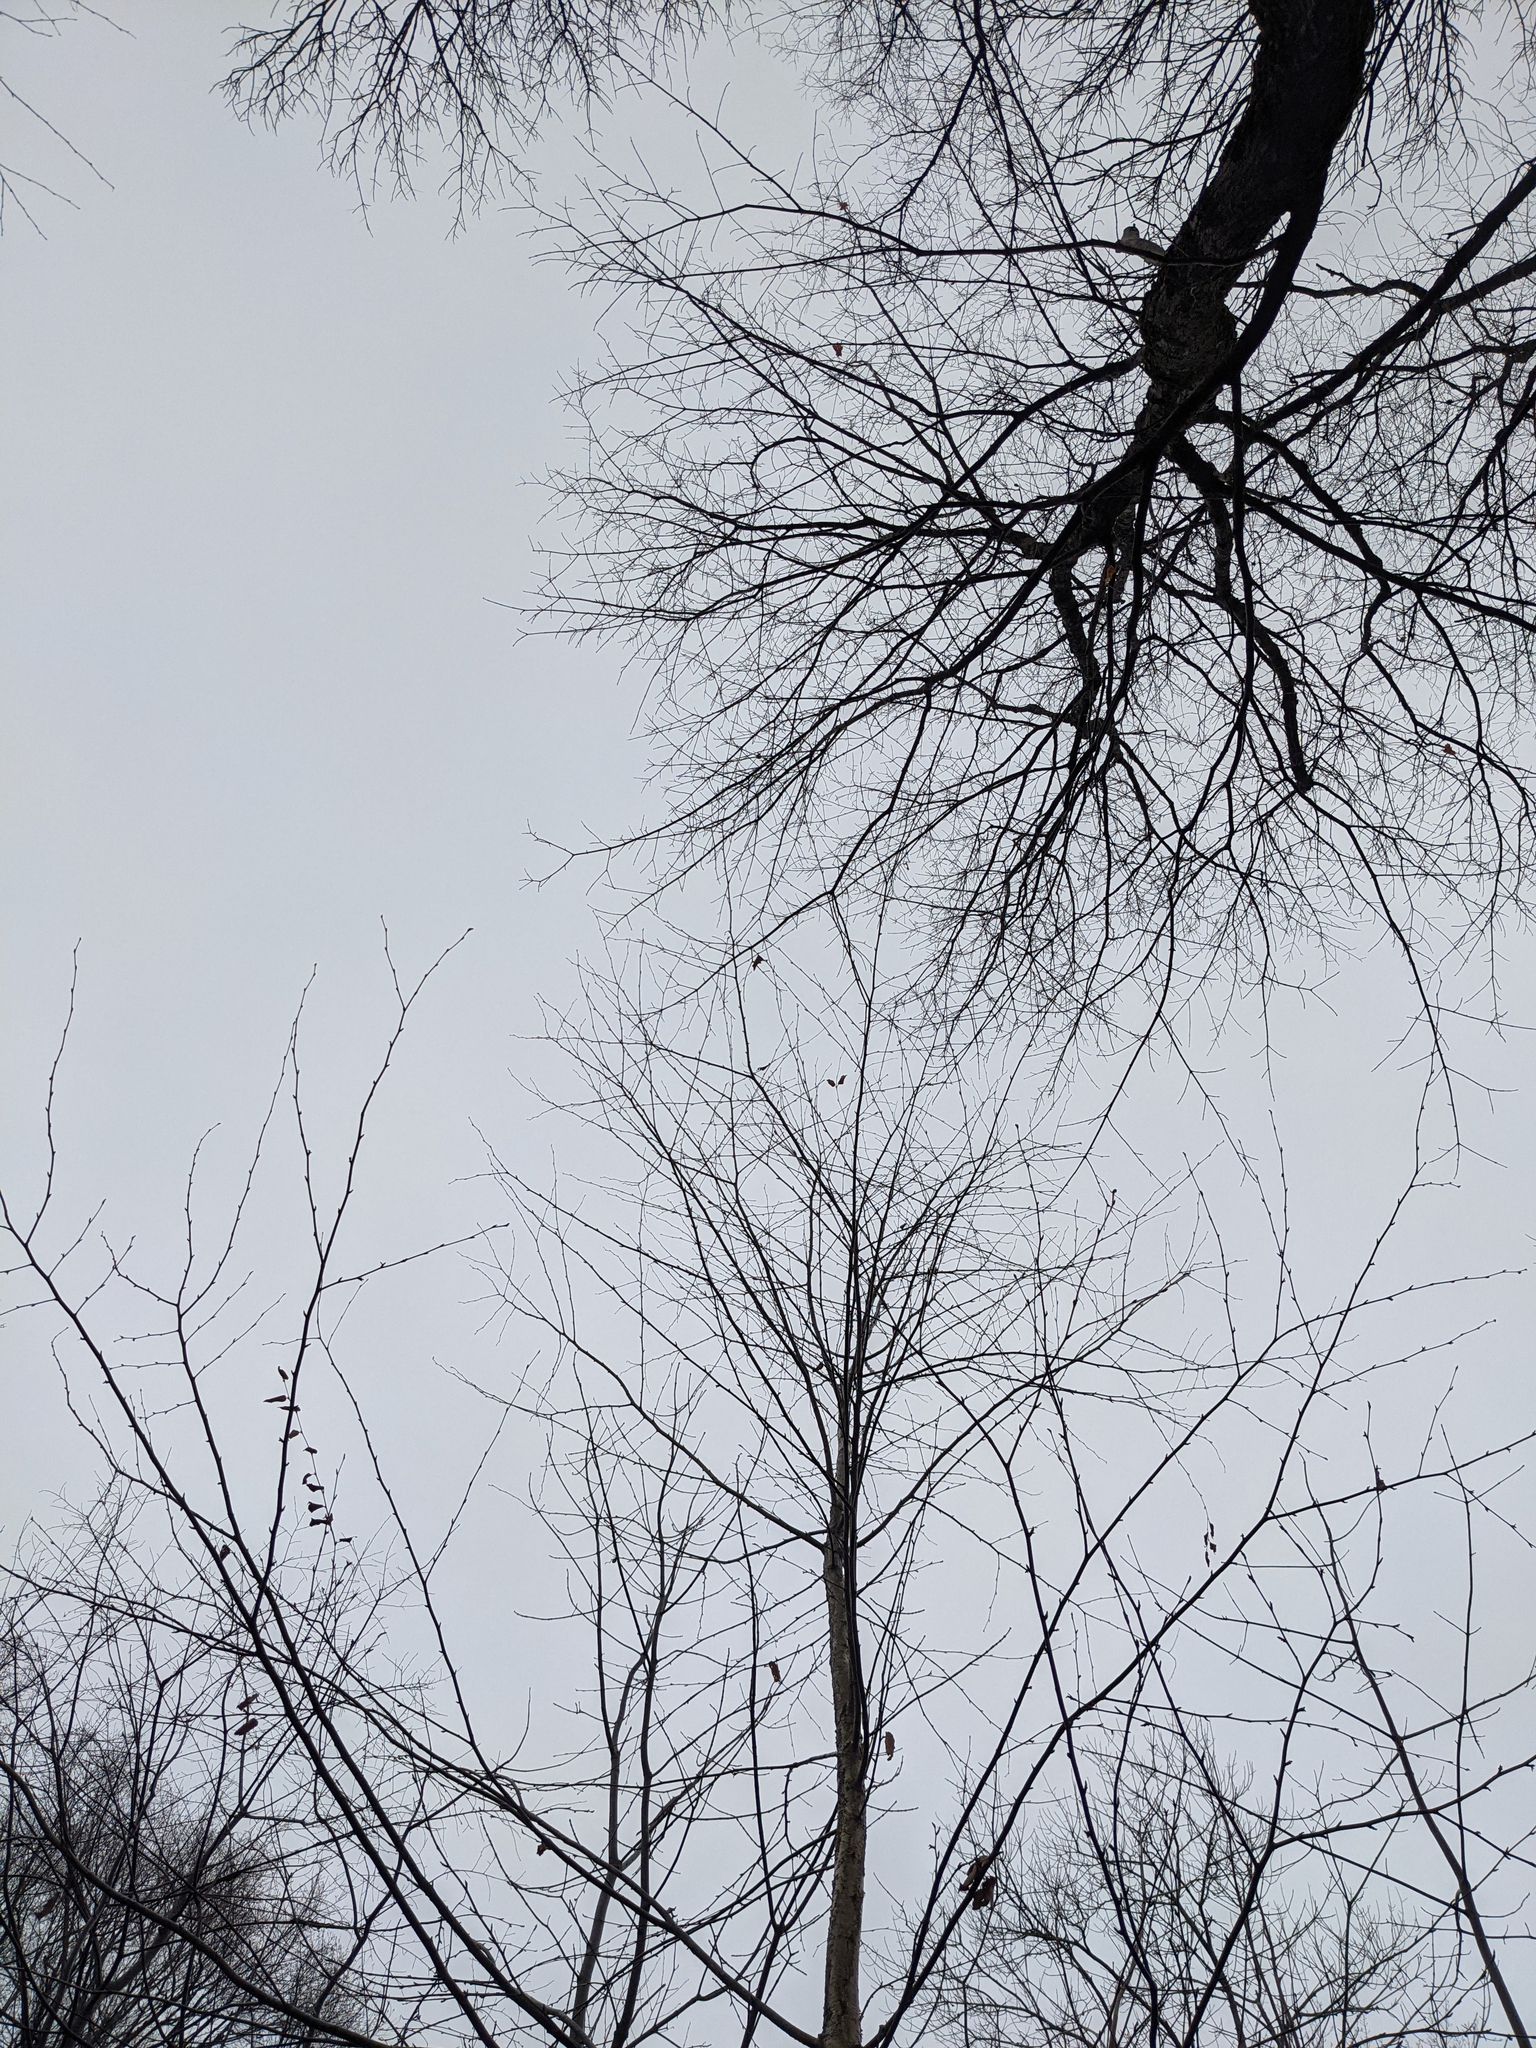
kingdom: Plantae
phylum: Tracheophyta
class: Magnoliopsida
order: Fagales
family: Betulaceae
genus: Betula
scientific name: Betula alleghaniensis
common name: Yellow birch
